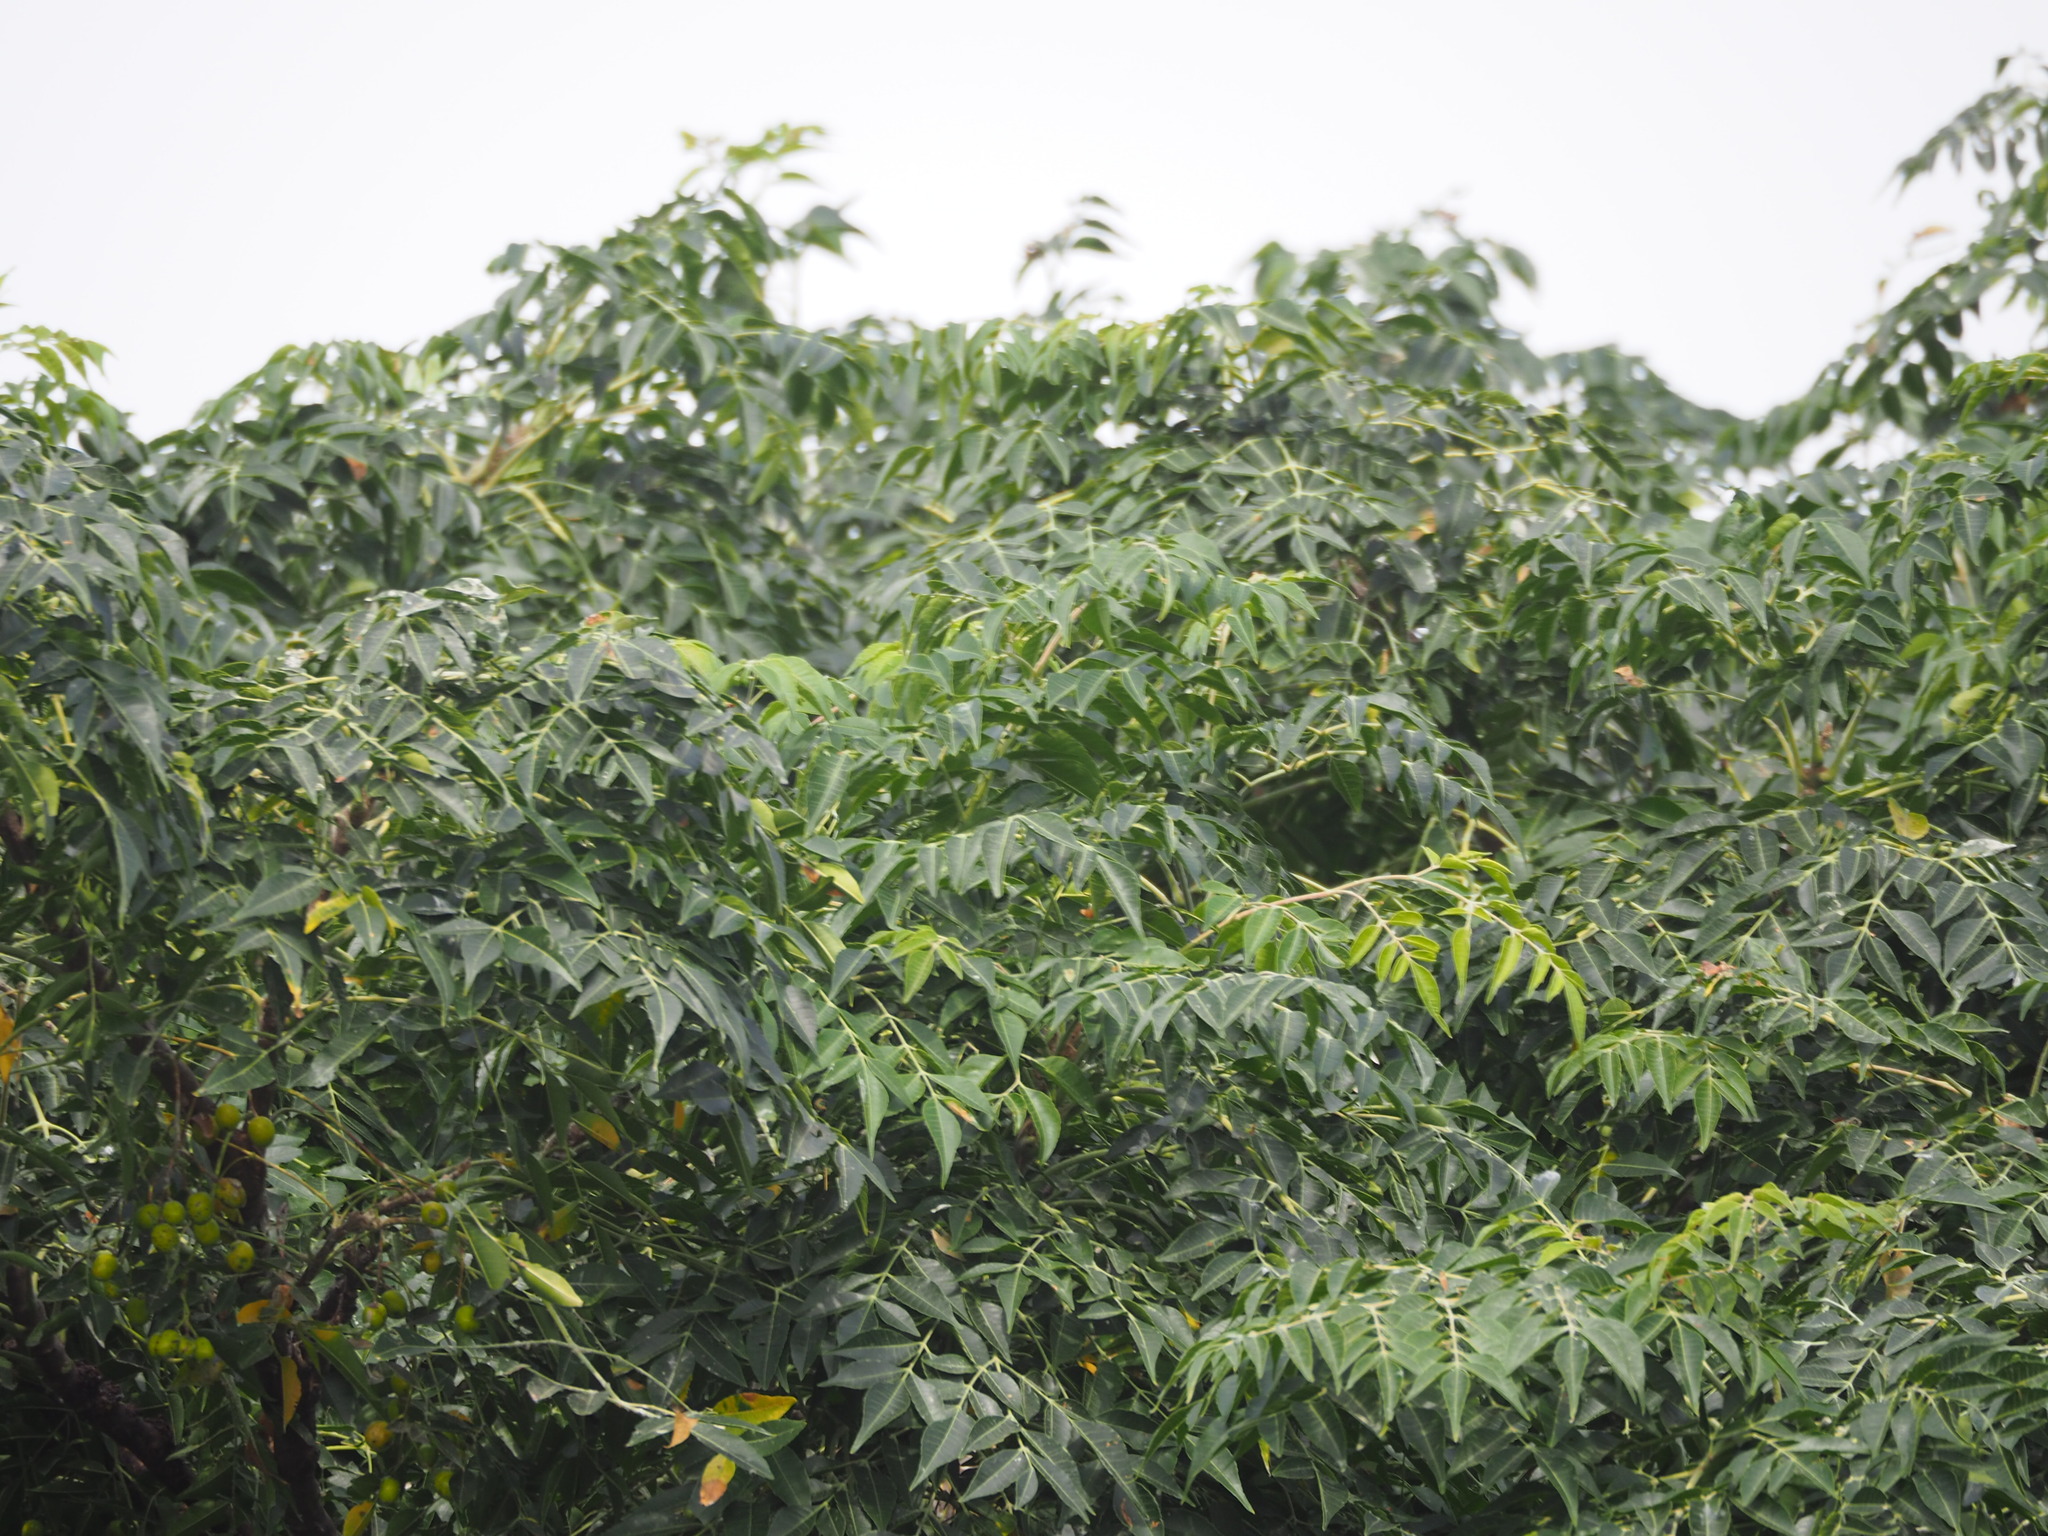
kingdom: Plantae
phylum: Tracheophyta
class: Magnoliopsida
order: Sapindales
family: Meliaceae
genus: Melia
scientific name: Melia azedarach
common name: Chinaberrytree
